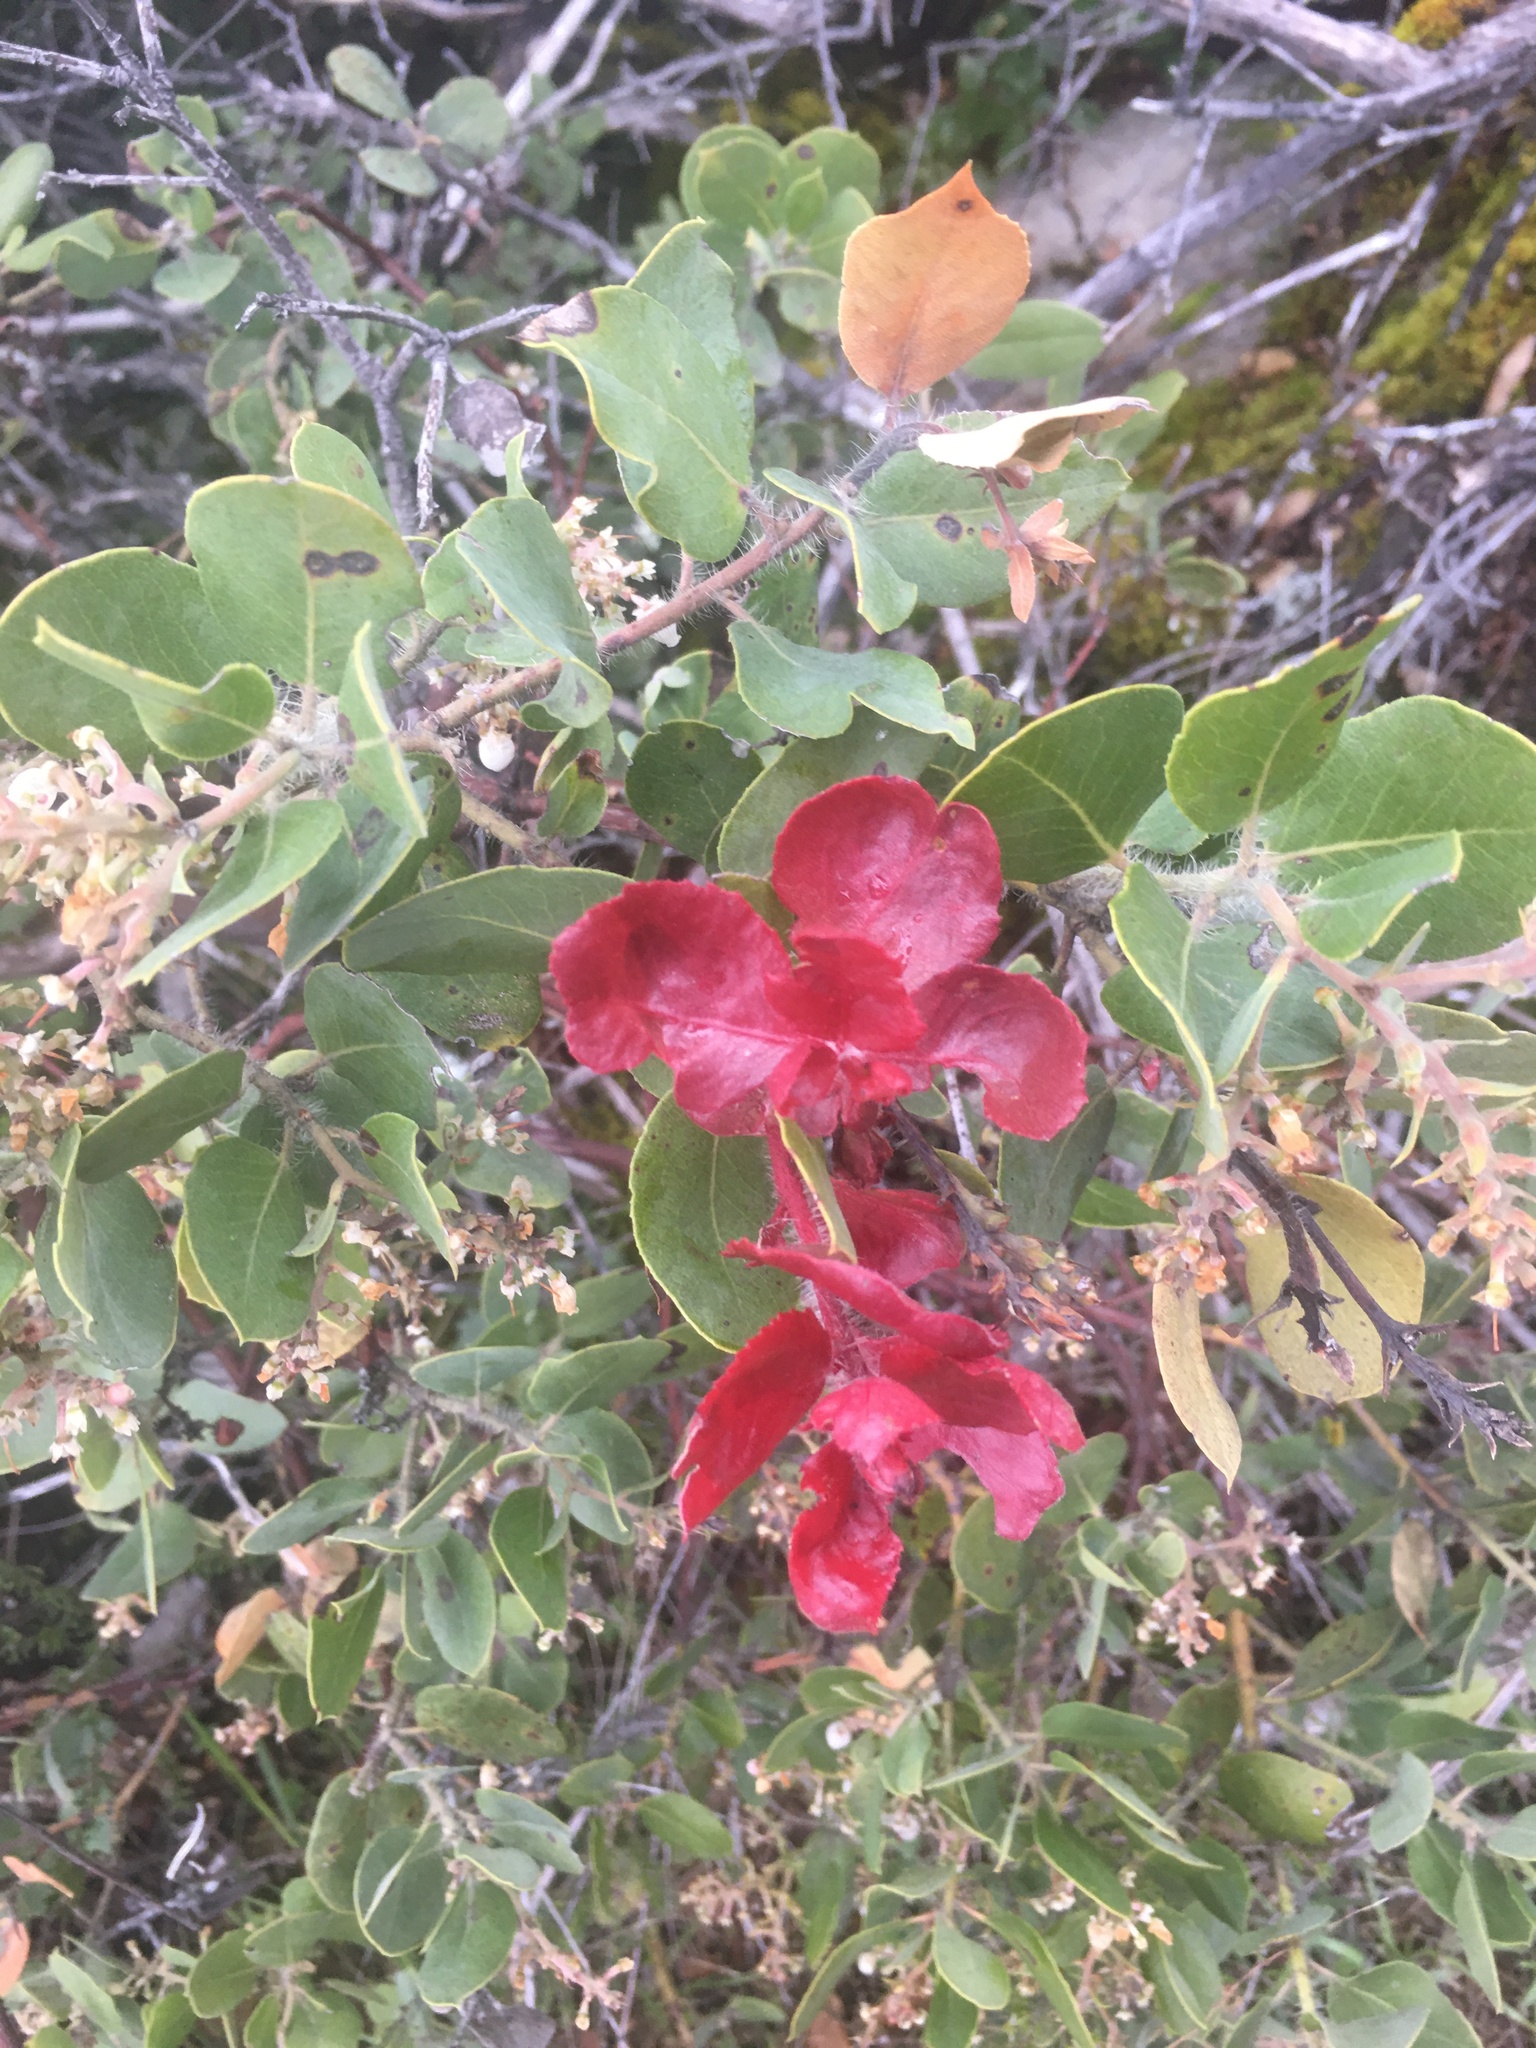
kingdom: Plantae
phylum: Tracheophyta
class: Magnoliopsida
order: Ericales
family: Ericaceae
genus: Arctostaphylos
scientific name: Arctostaphylos crustacea
